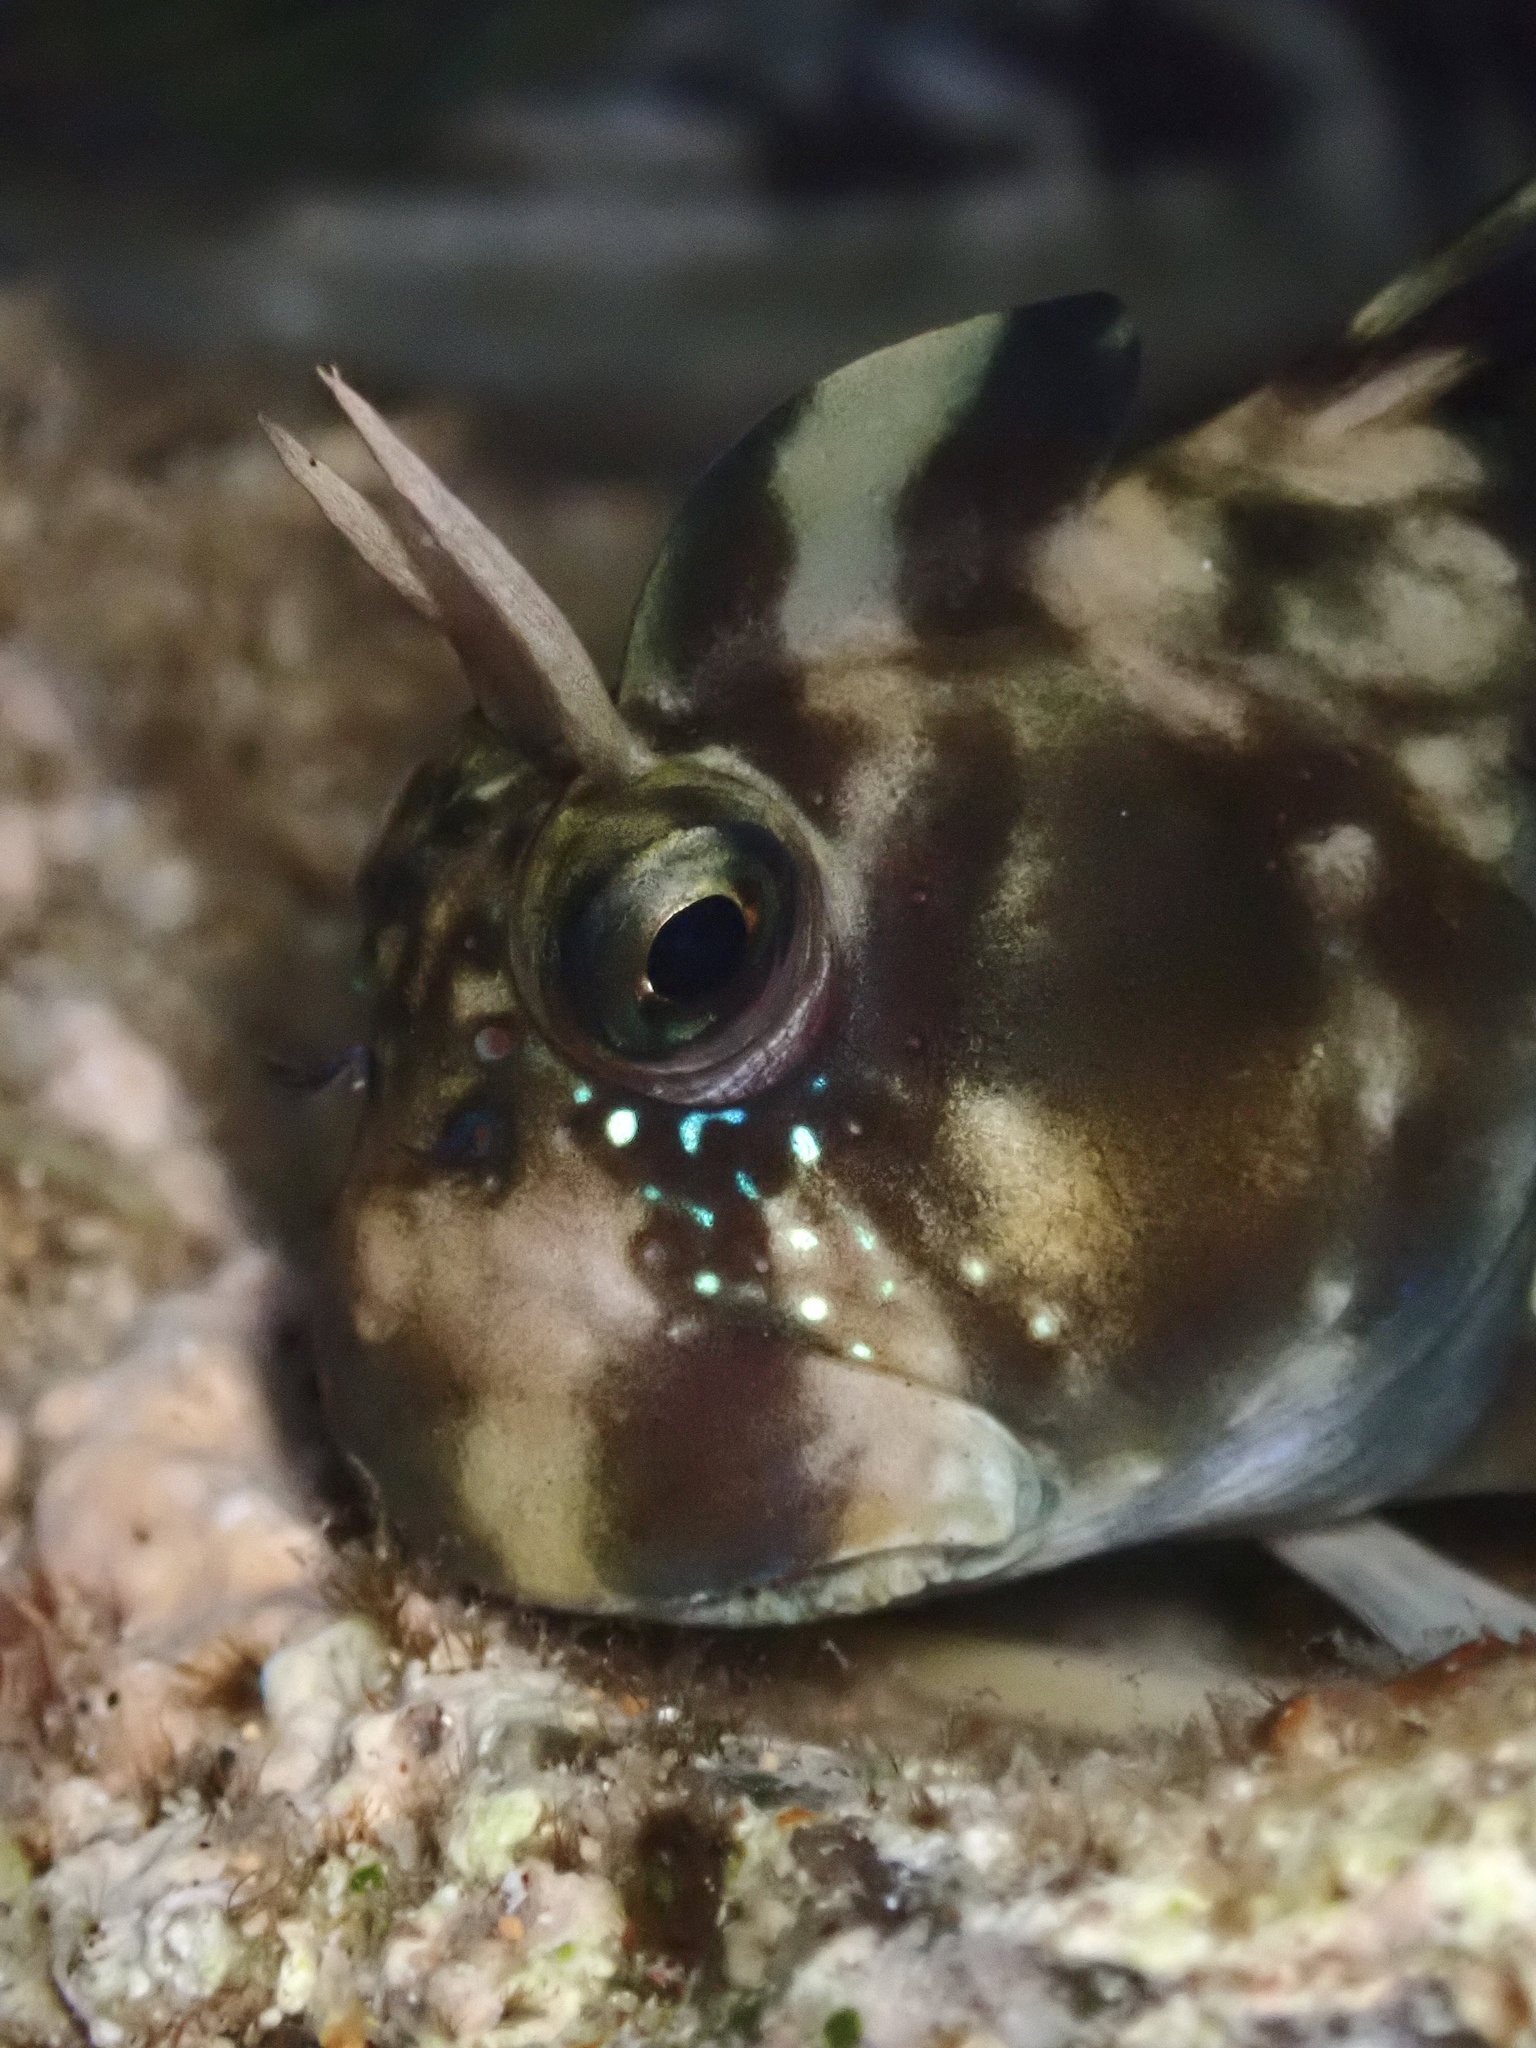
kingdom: Animalia
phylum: Chordata
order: Perciformes
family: Blenniidae
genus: Istiblennius
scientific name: Istiblennius zebra
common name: Zebra blenny
